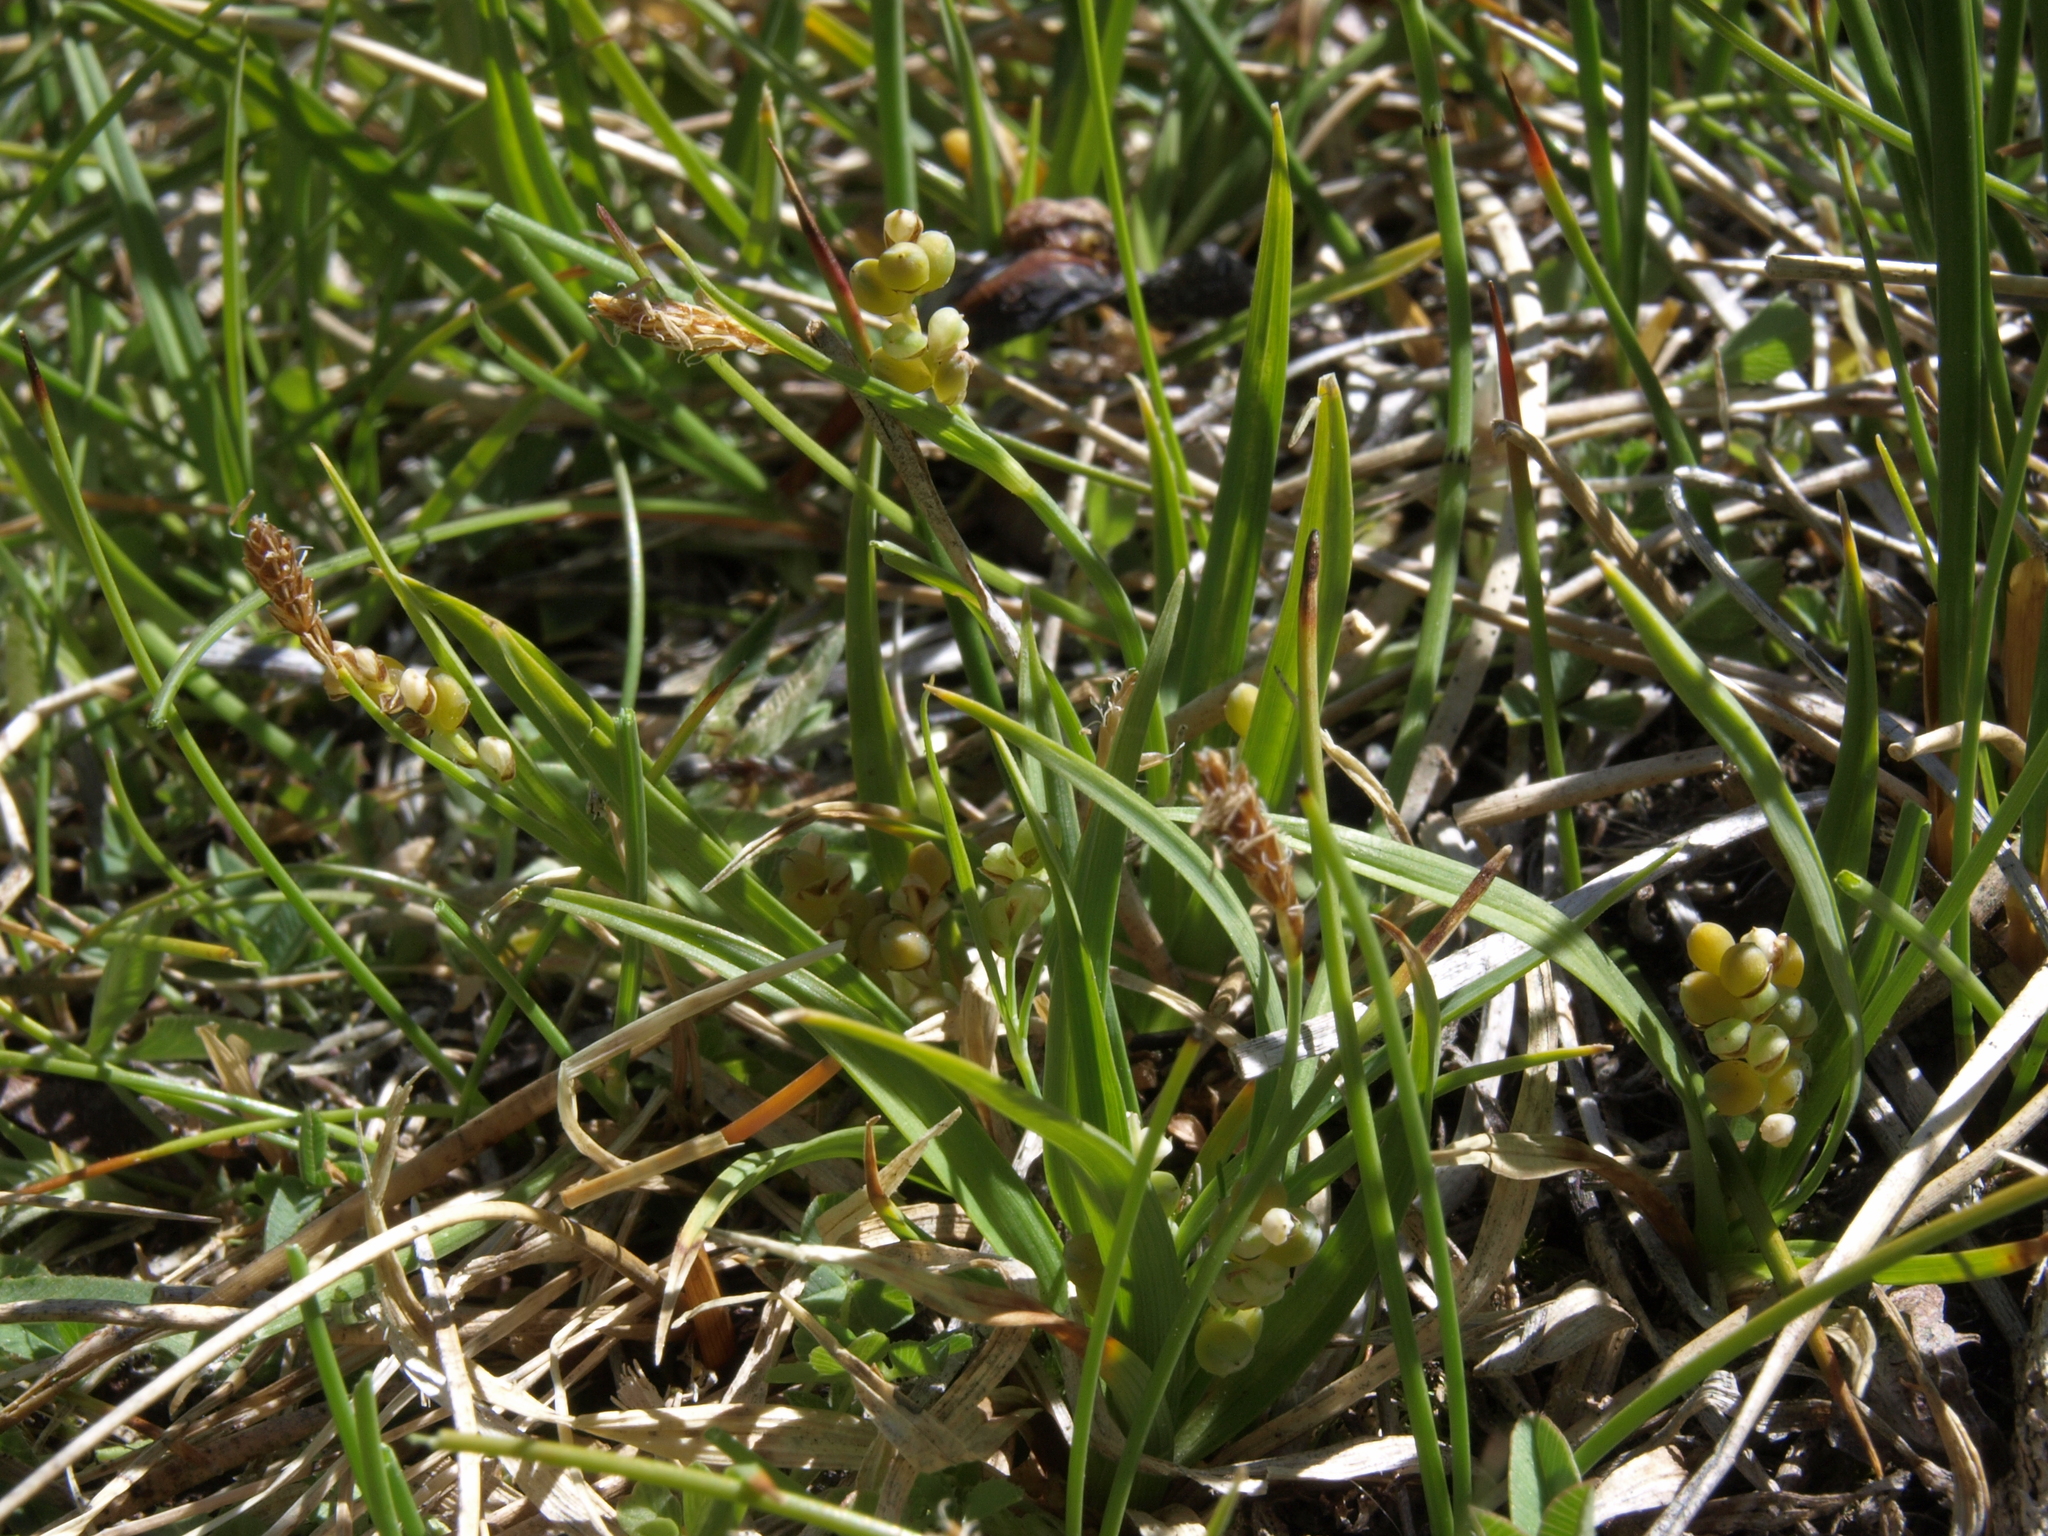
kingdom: Plantae
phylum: Tracheophyta
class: Liliopsida
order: Poales
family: Cyperaceae
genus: Carex
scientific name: Carex aurea
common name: Golden sedge
